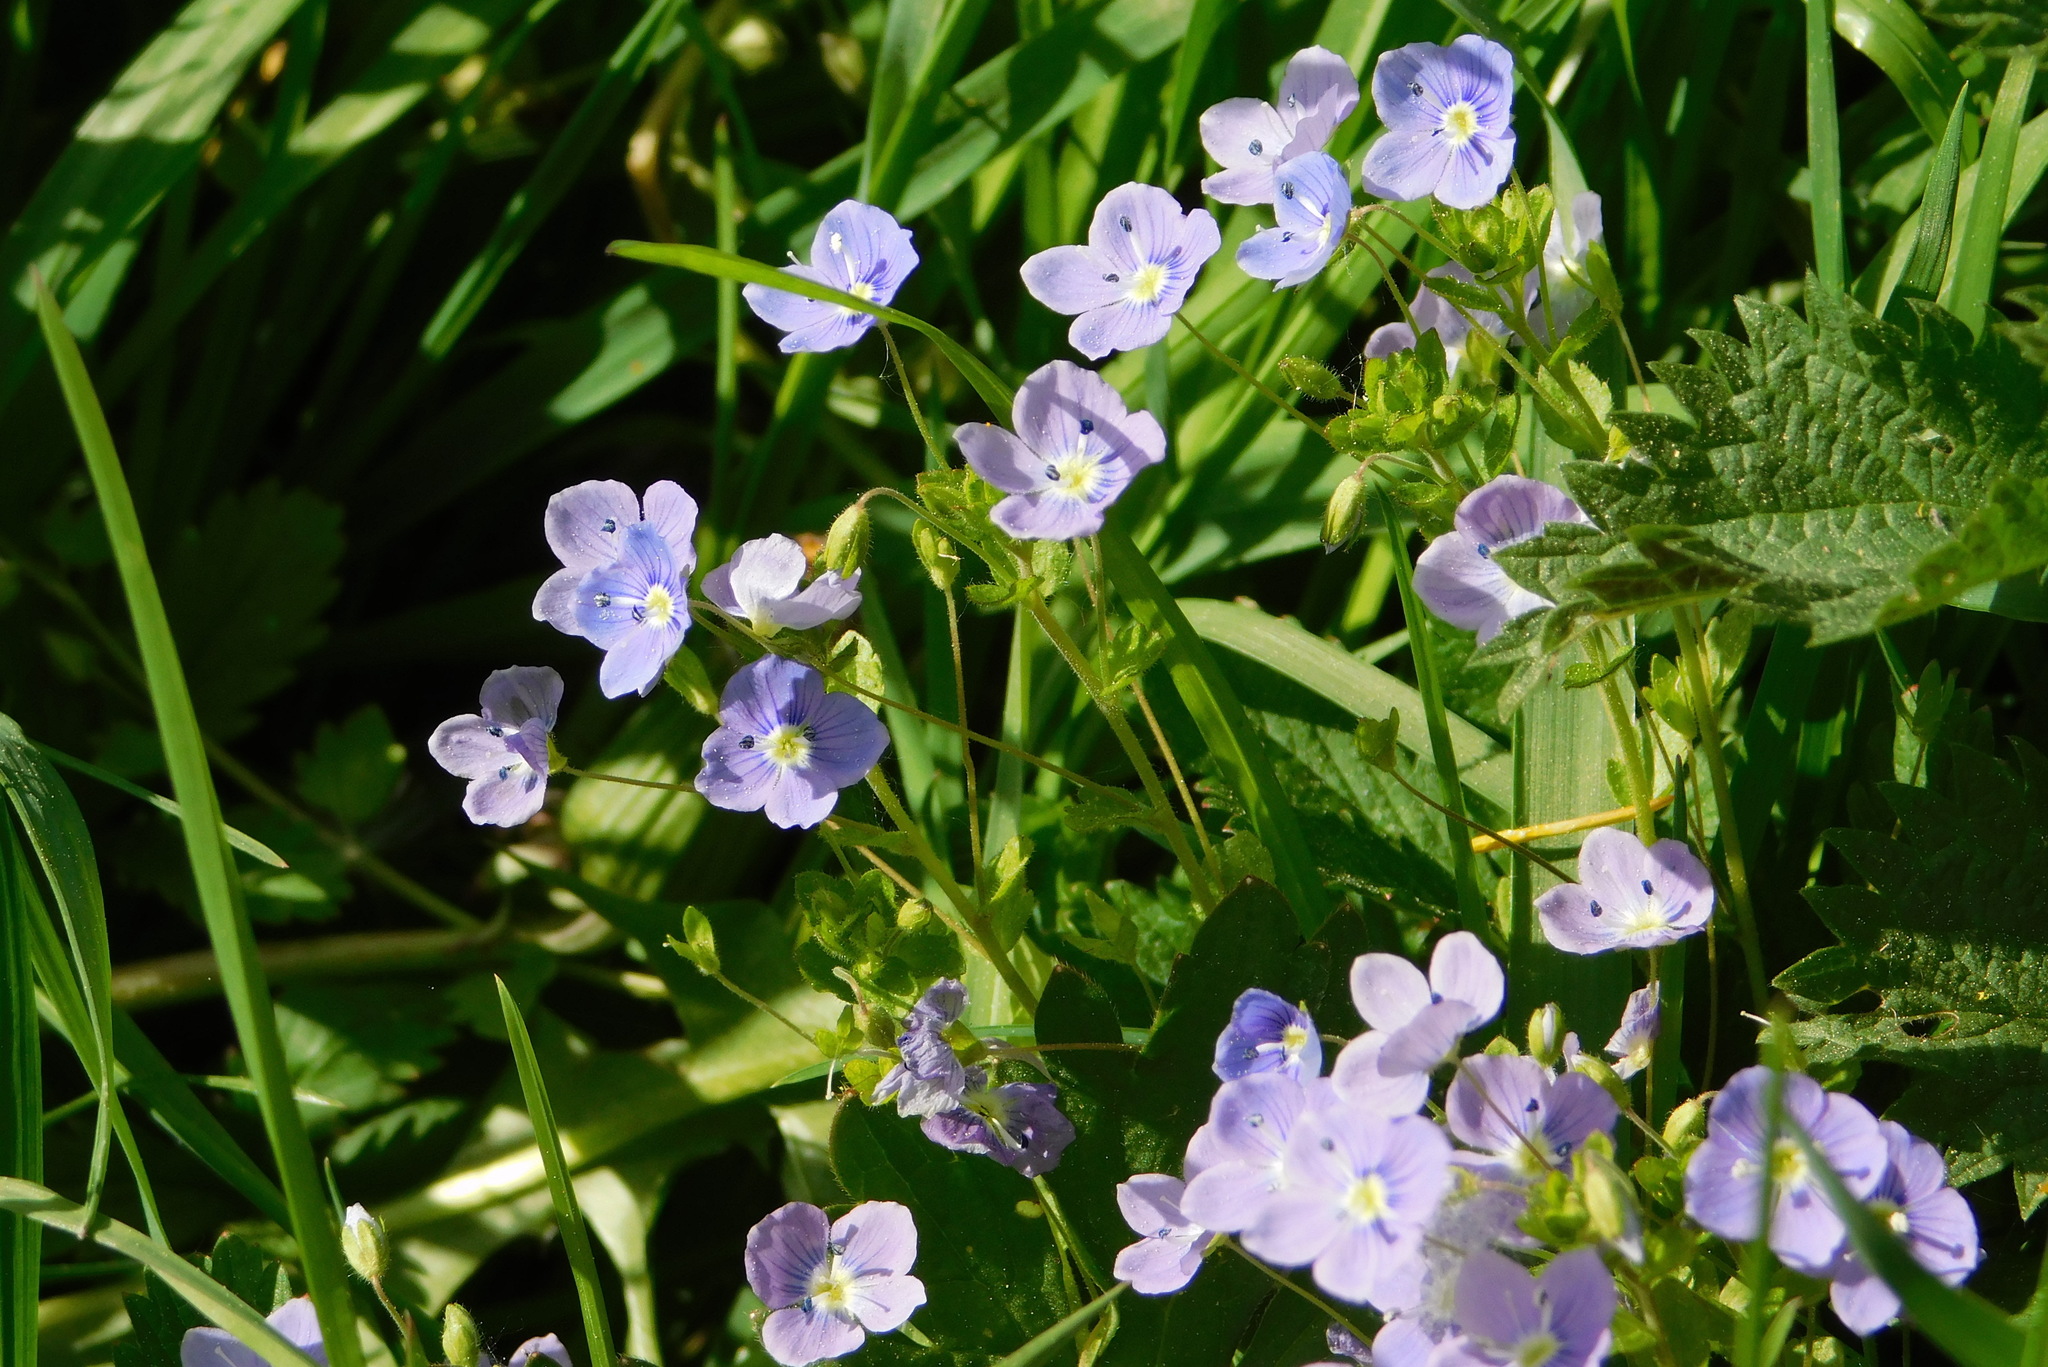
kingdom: Plantae
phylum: Tracheophyta
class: Magnoliopsida
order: Lamiales
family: Plantaginaceae
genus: Veronica
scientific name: Veronica filiformis
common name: Slender speedwell
